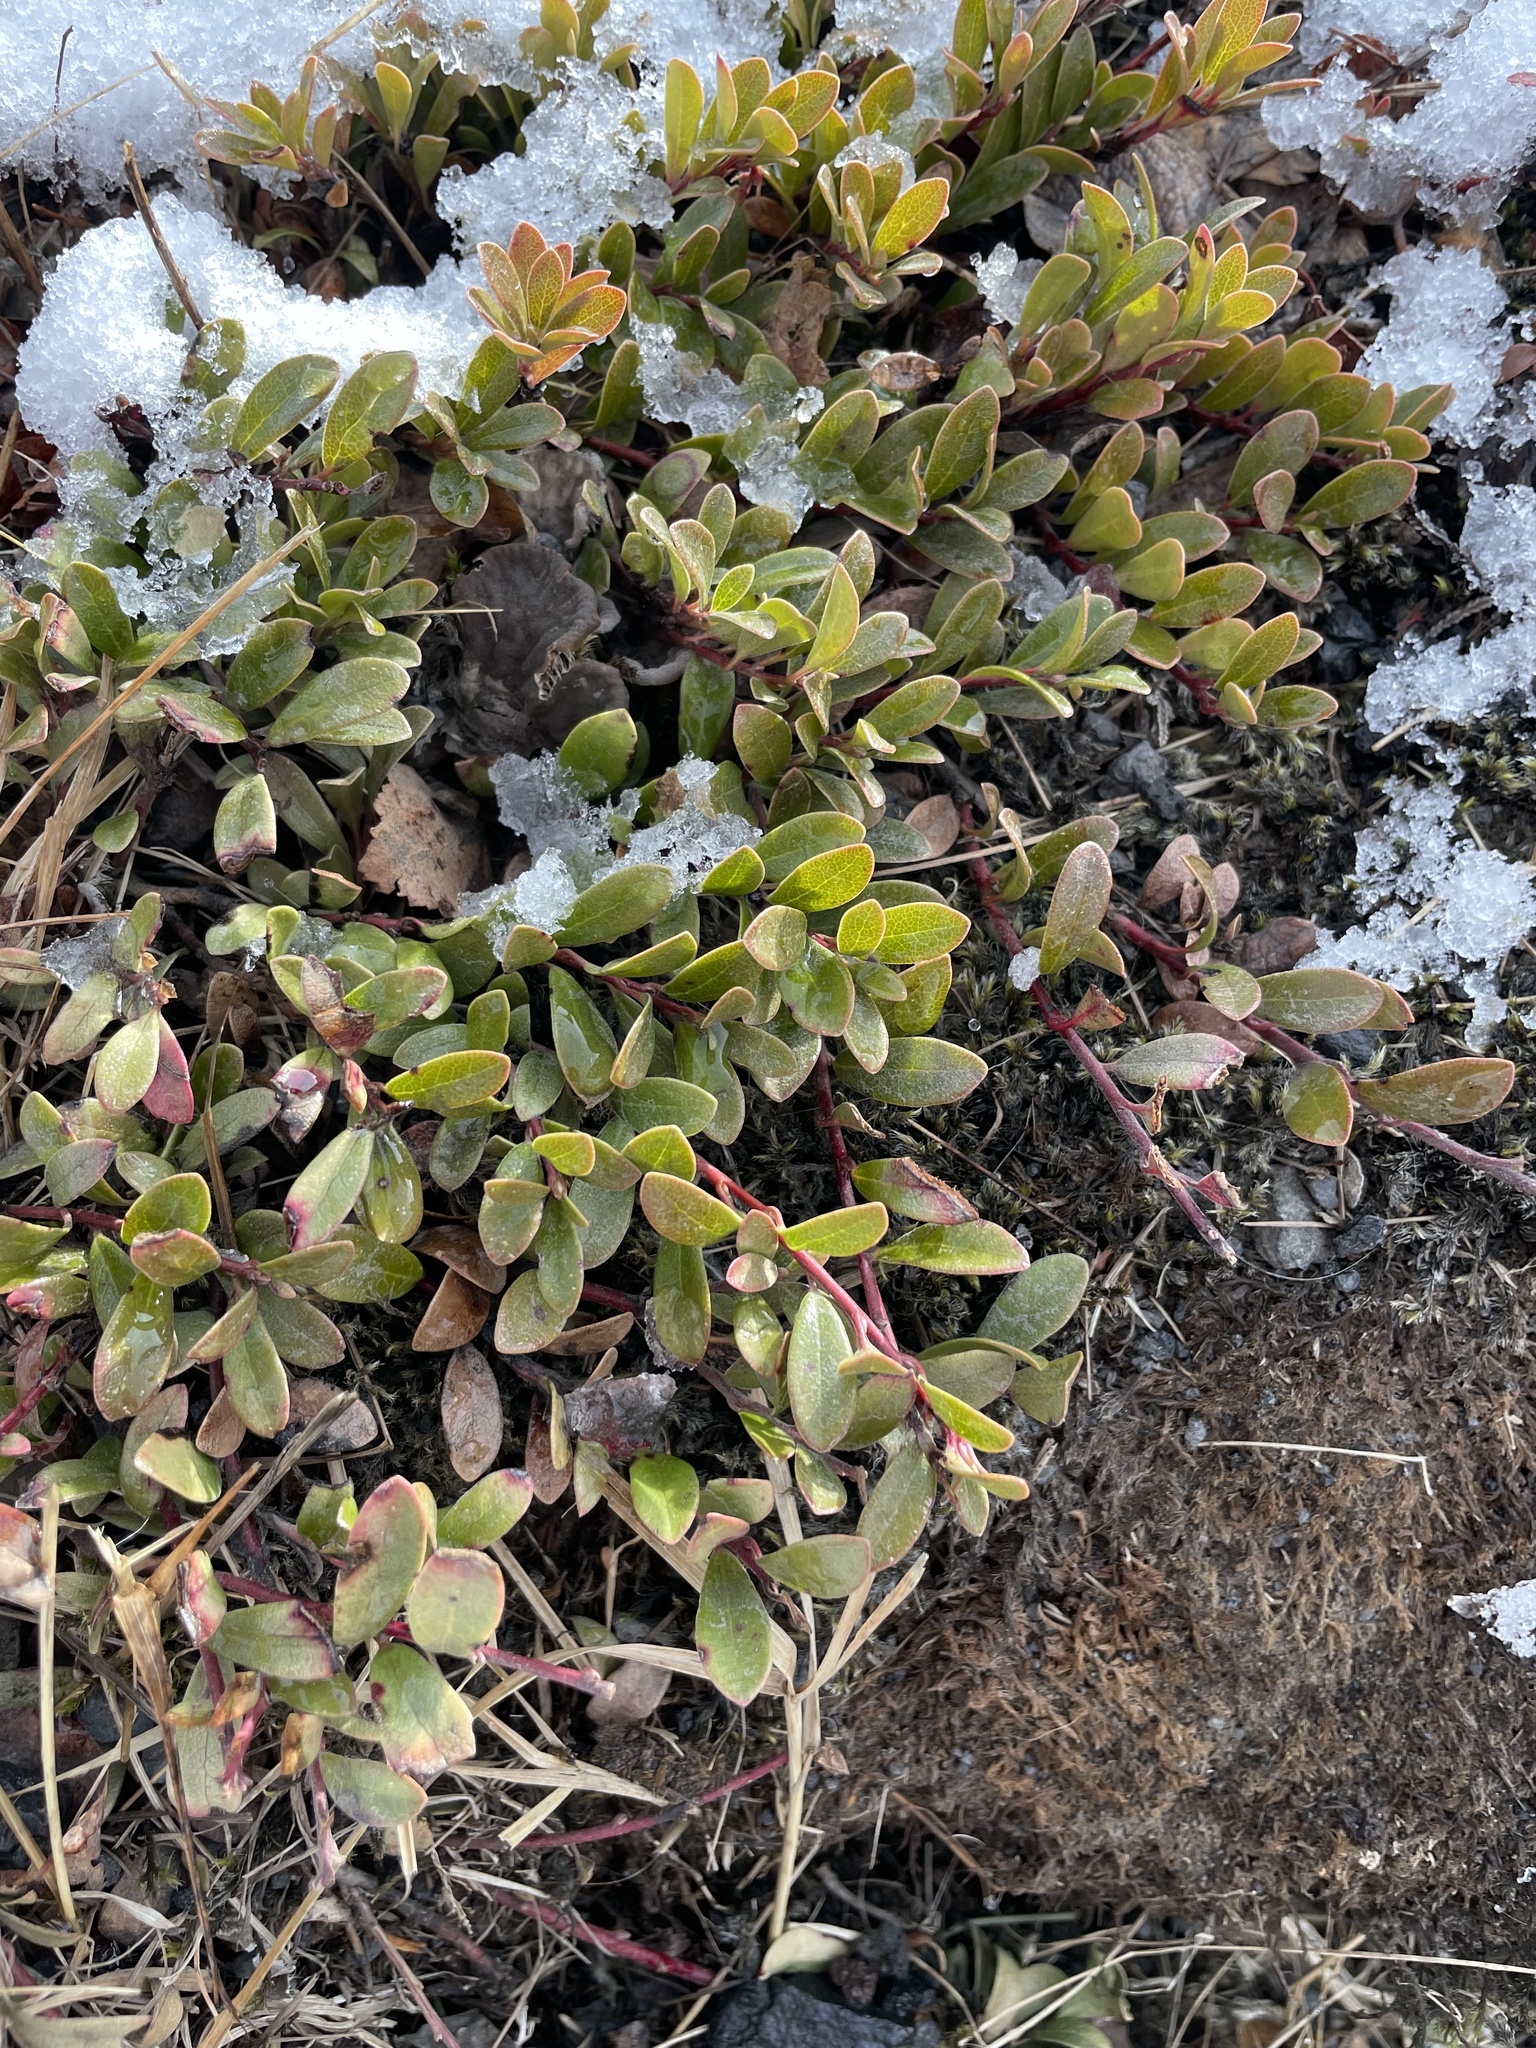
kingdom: Plantae
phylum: Tracheophyta
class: Magnoliopsida
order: Ericales
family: Ericaceae
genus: Arctostaphylos
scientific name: Arctostaphylos uva-ursi
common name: Bearberry
